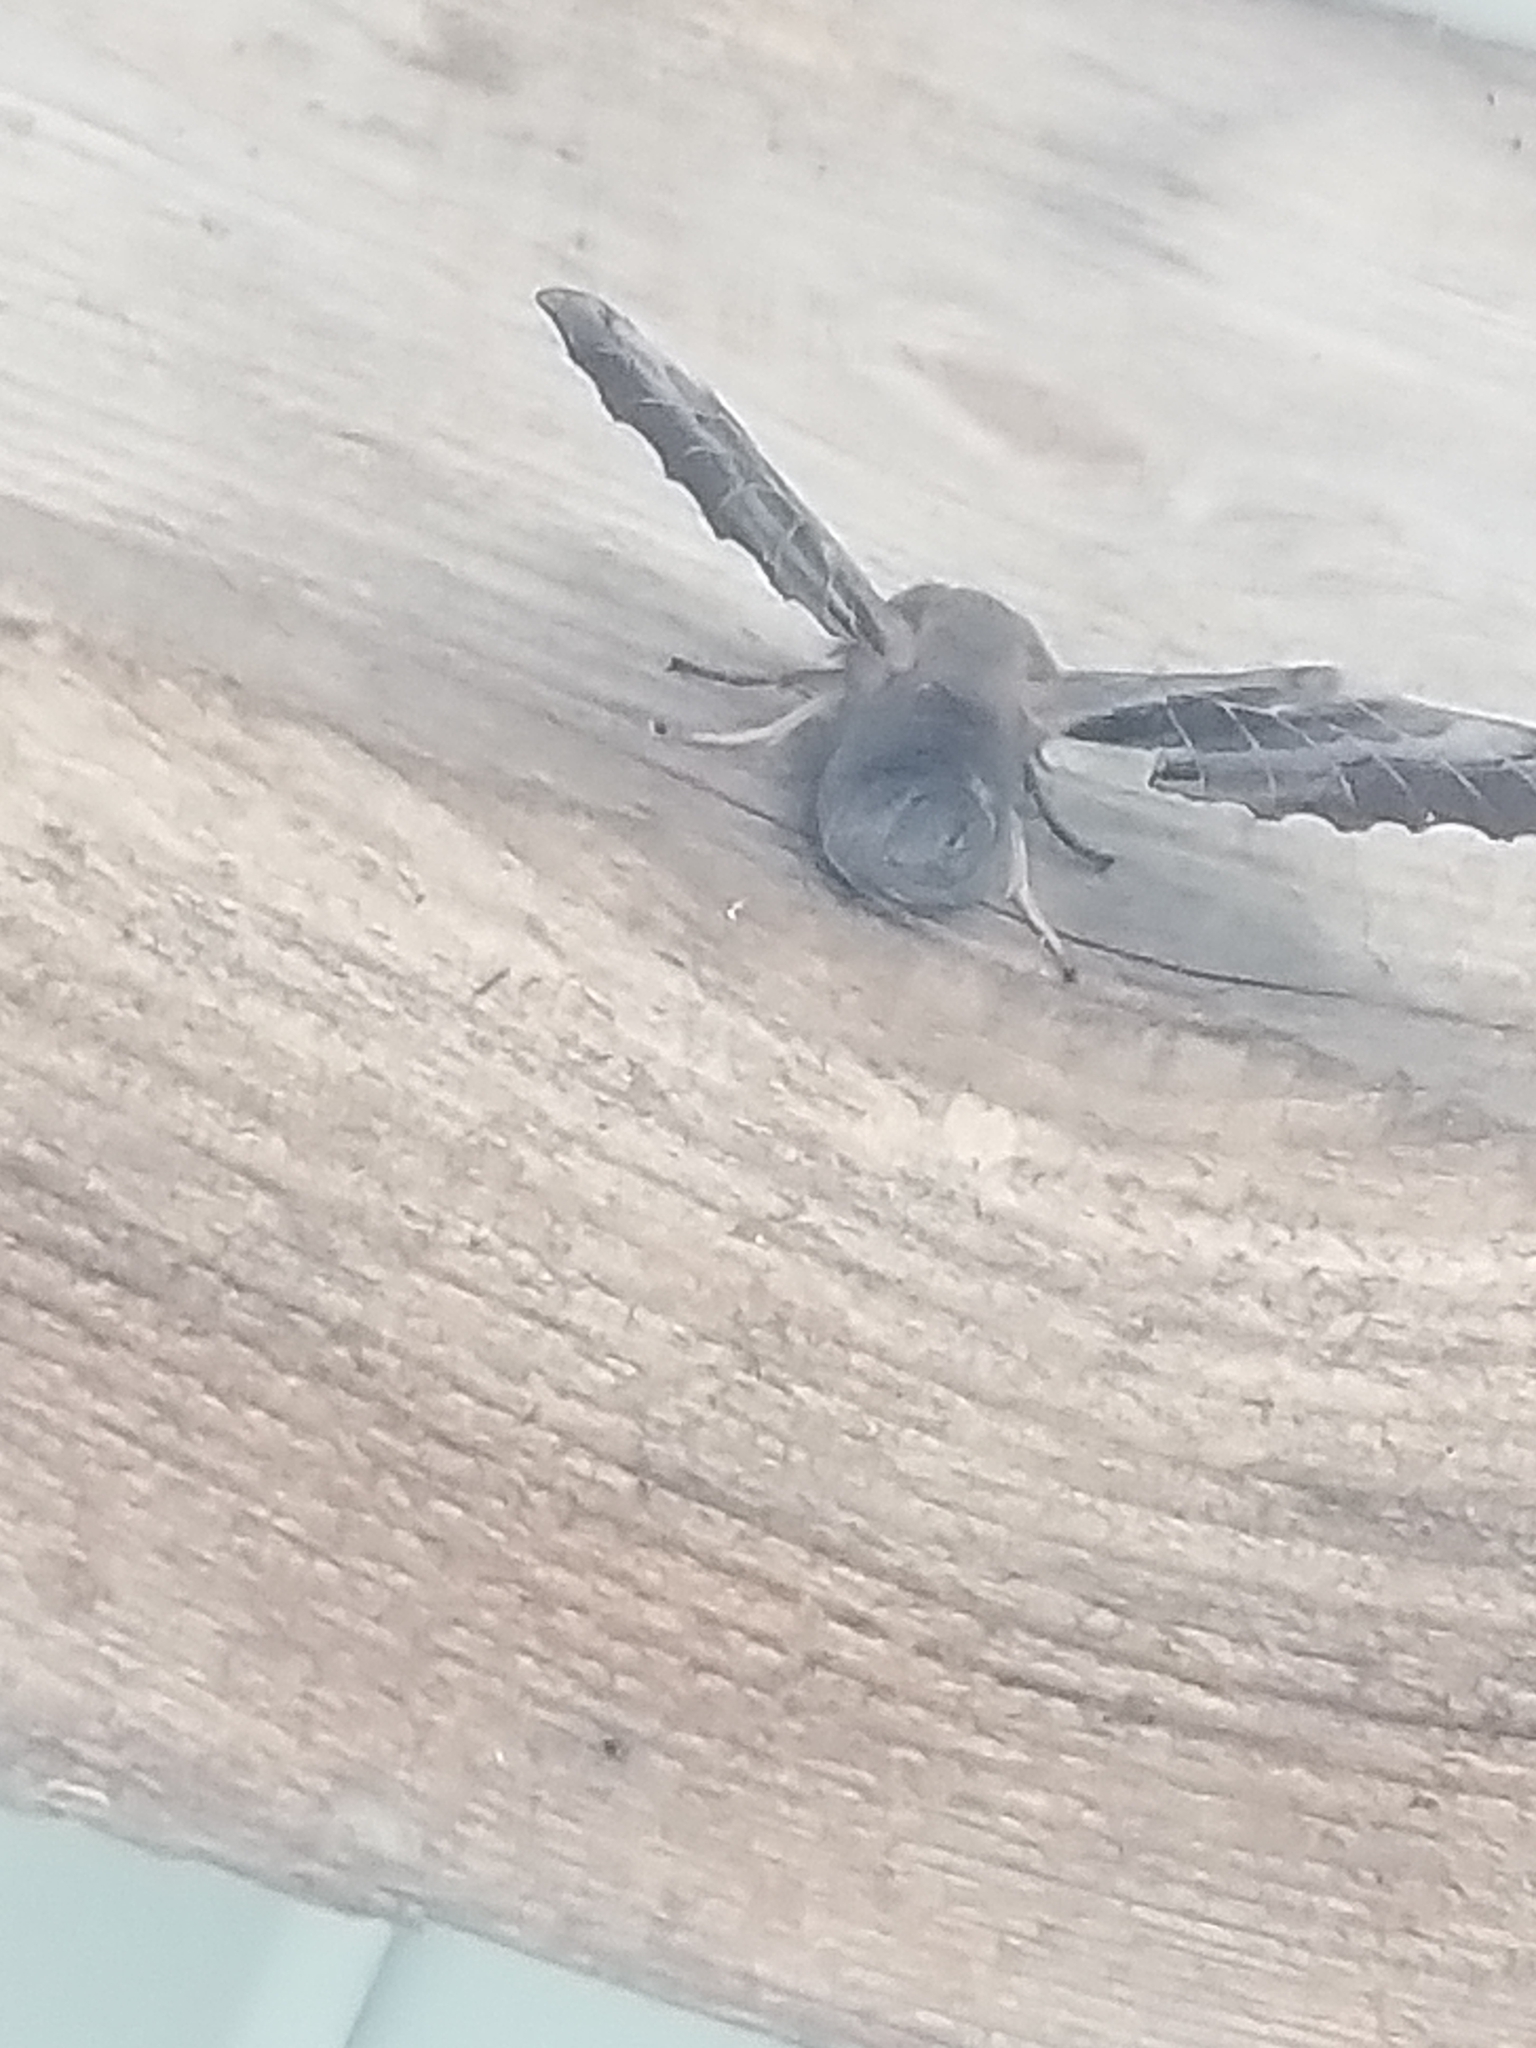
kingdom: Animalia
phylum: Arthropoda
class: Insecta
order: Lepidoptera
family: Sphingidae
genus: Laothoe
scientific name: Laothoe populi
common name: Poplar hawk-moth
